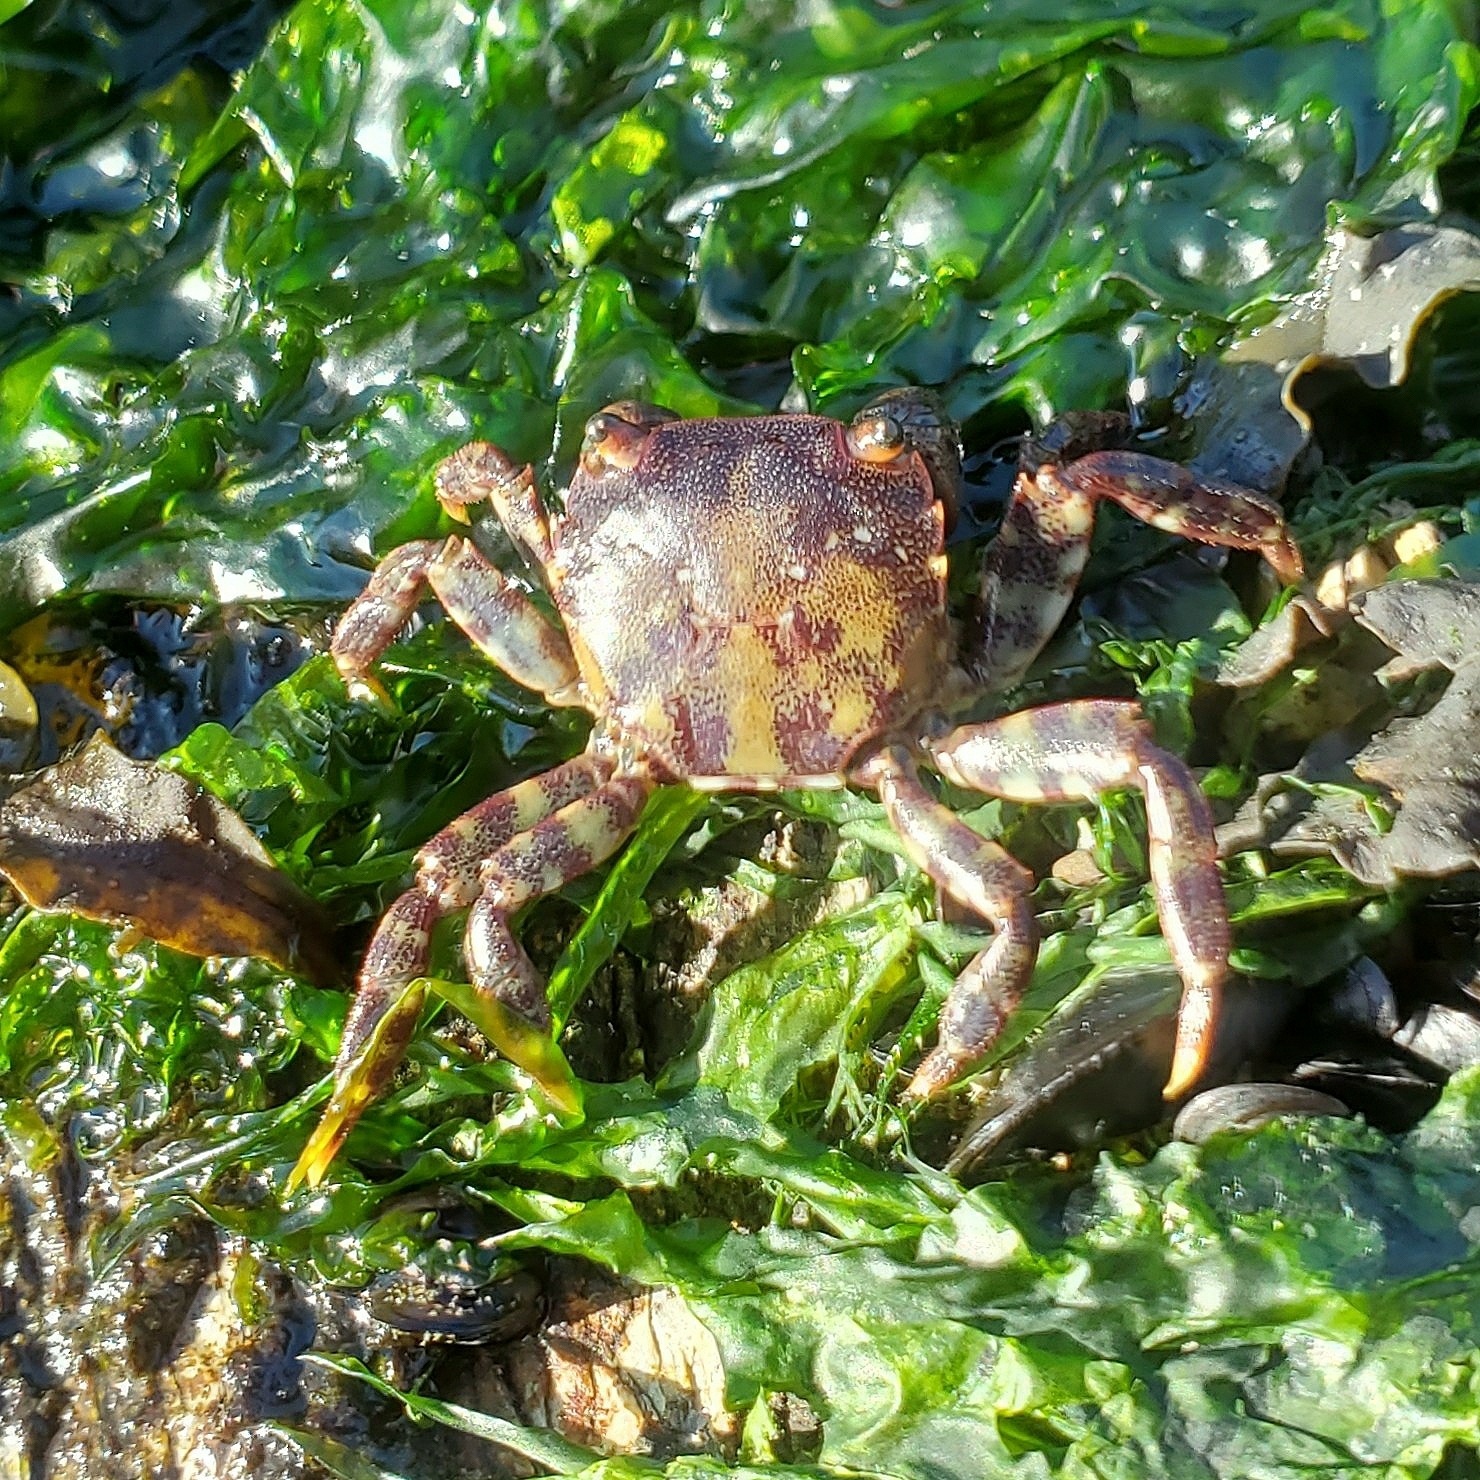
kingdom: Animalia
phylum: Arthropoda
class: Malacostraca
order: Decapoda
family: Varunidae
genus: Hemigrapsus
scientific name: Hemigrapsus sanguineus
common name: Asian shore crab
